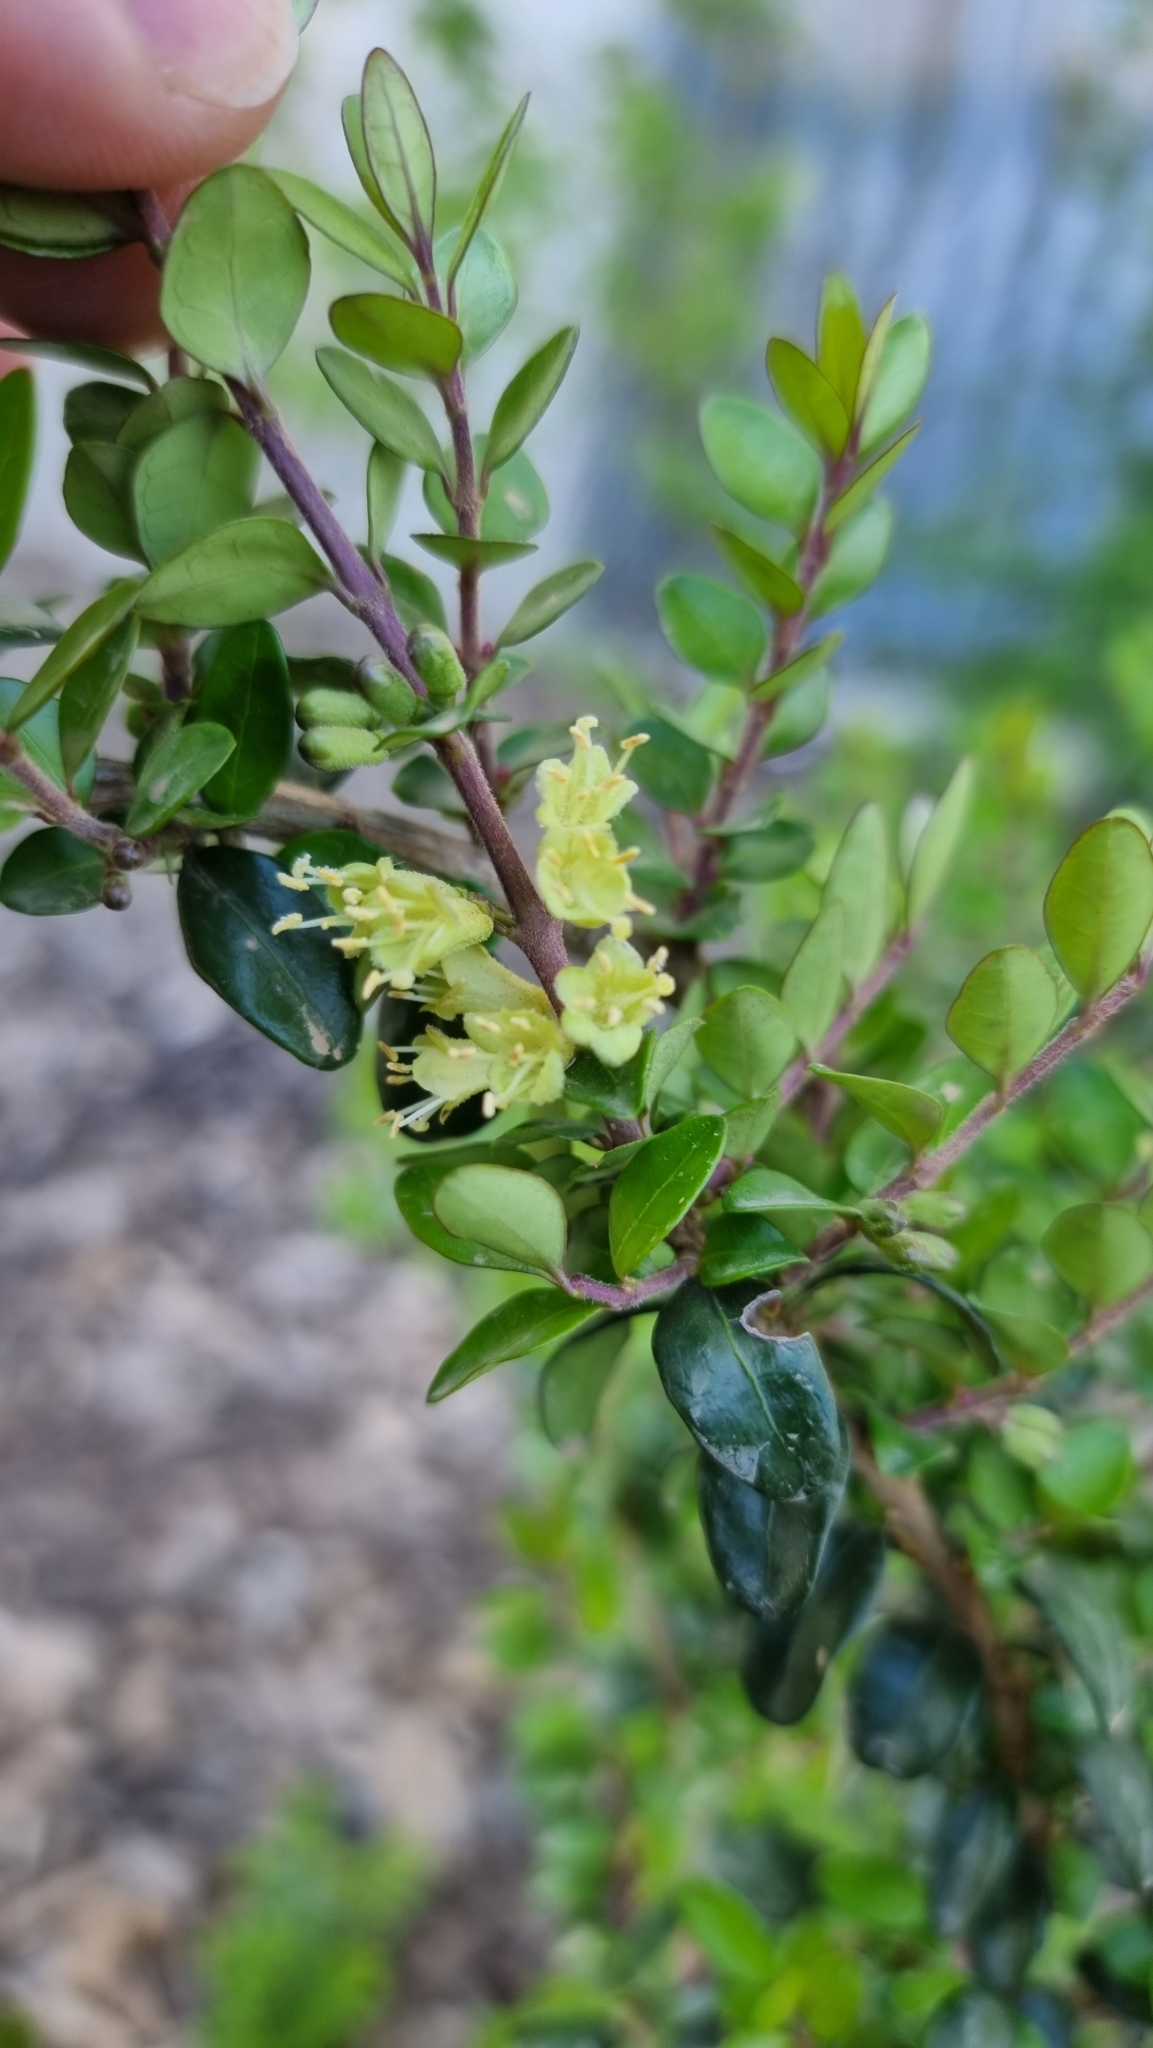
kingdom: Plantae
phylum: Tracheophyta
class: Magnoliopsida
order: Dipsacales
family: Caprifoliaceae
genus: Lonicera
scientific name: Lonicera pileata
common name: Box-leaved honeysuckle
